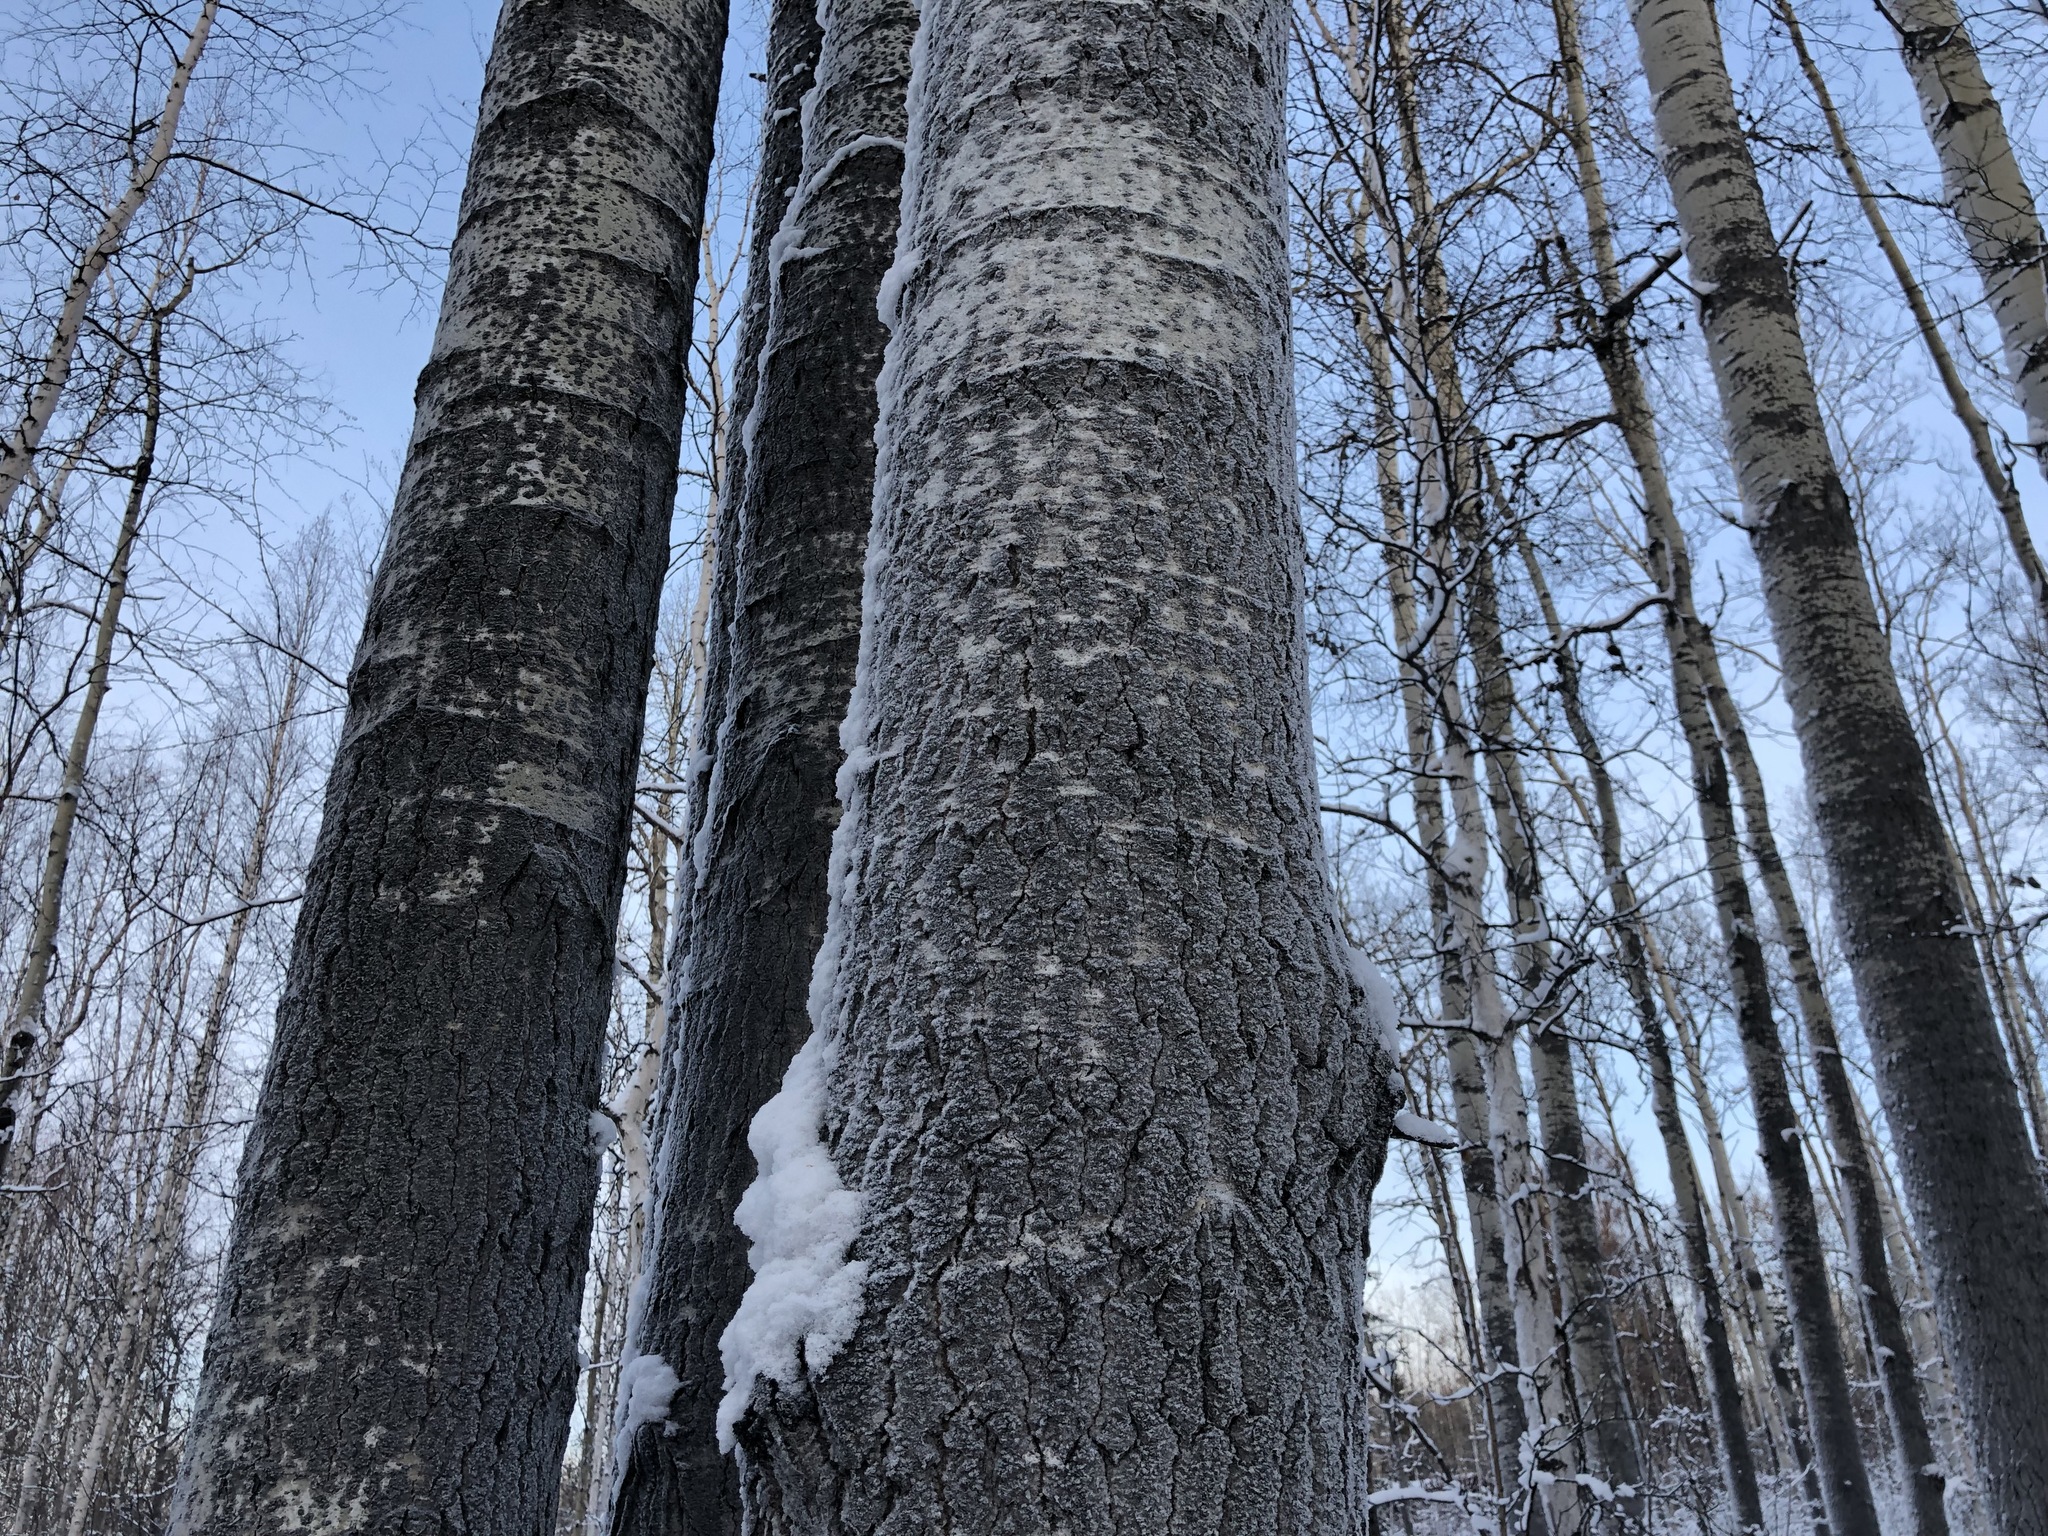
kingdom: Plantae
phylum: Tracheophyta
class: Magnoliopsida
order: Malpighiales
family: Salicaceae
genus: Populus
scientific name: Populus tremuloides
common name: Quaking aspen
